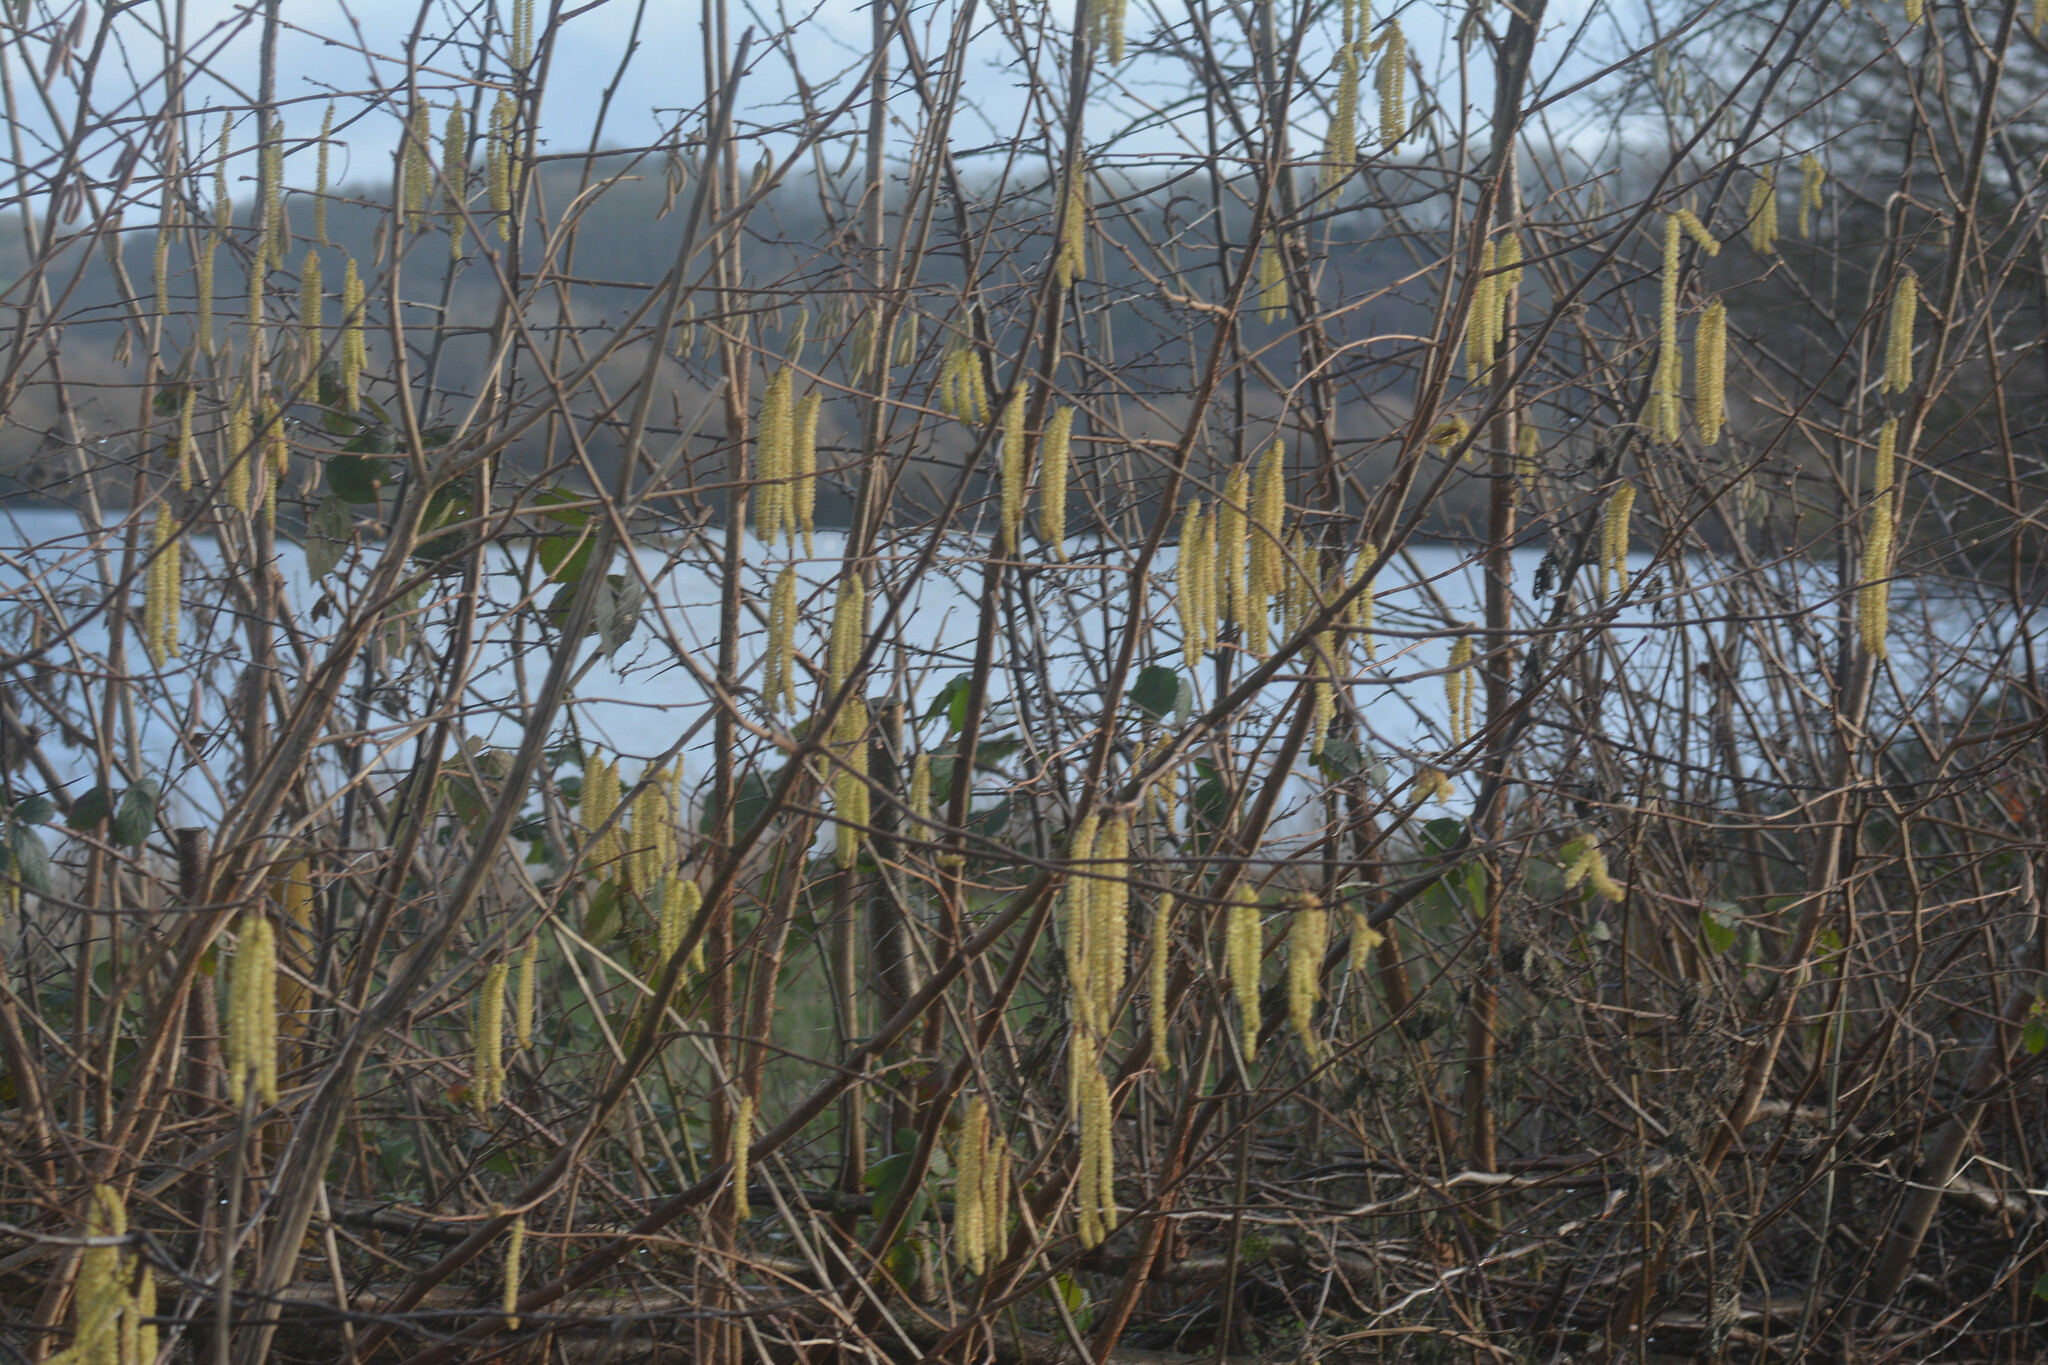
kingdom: Plantae
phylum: Tracheophyta
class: Magnoliopsida
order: Fagales
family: Betulaceae
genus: Corylus
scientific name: Corylus avellana
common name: European hazel
